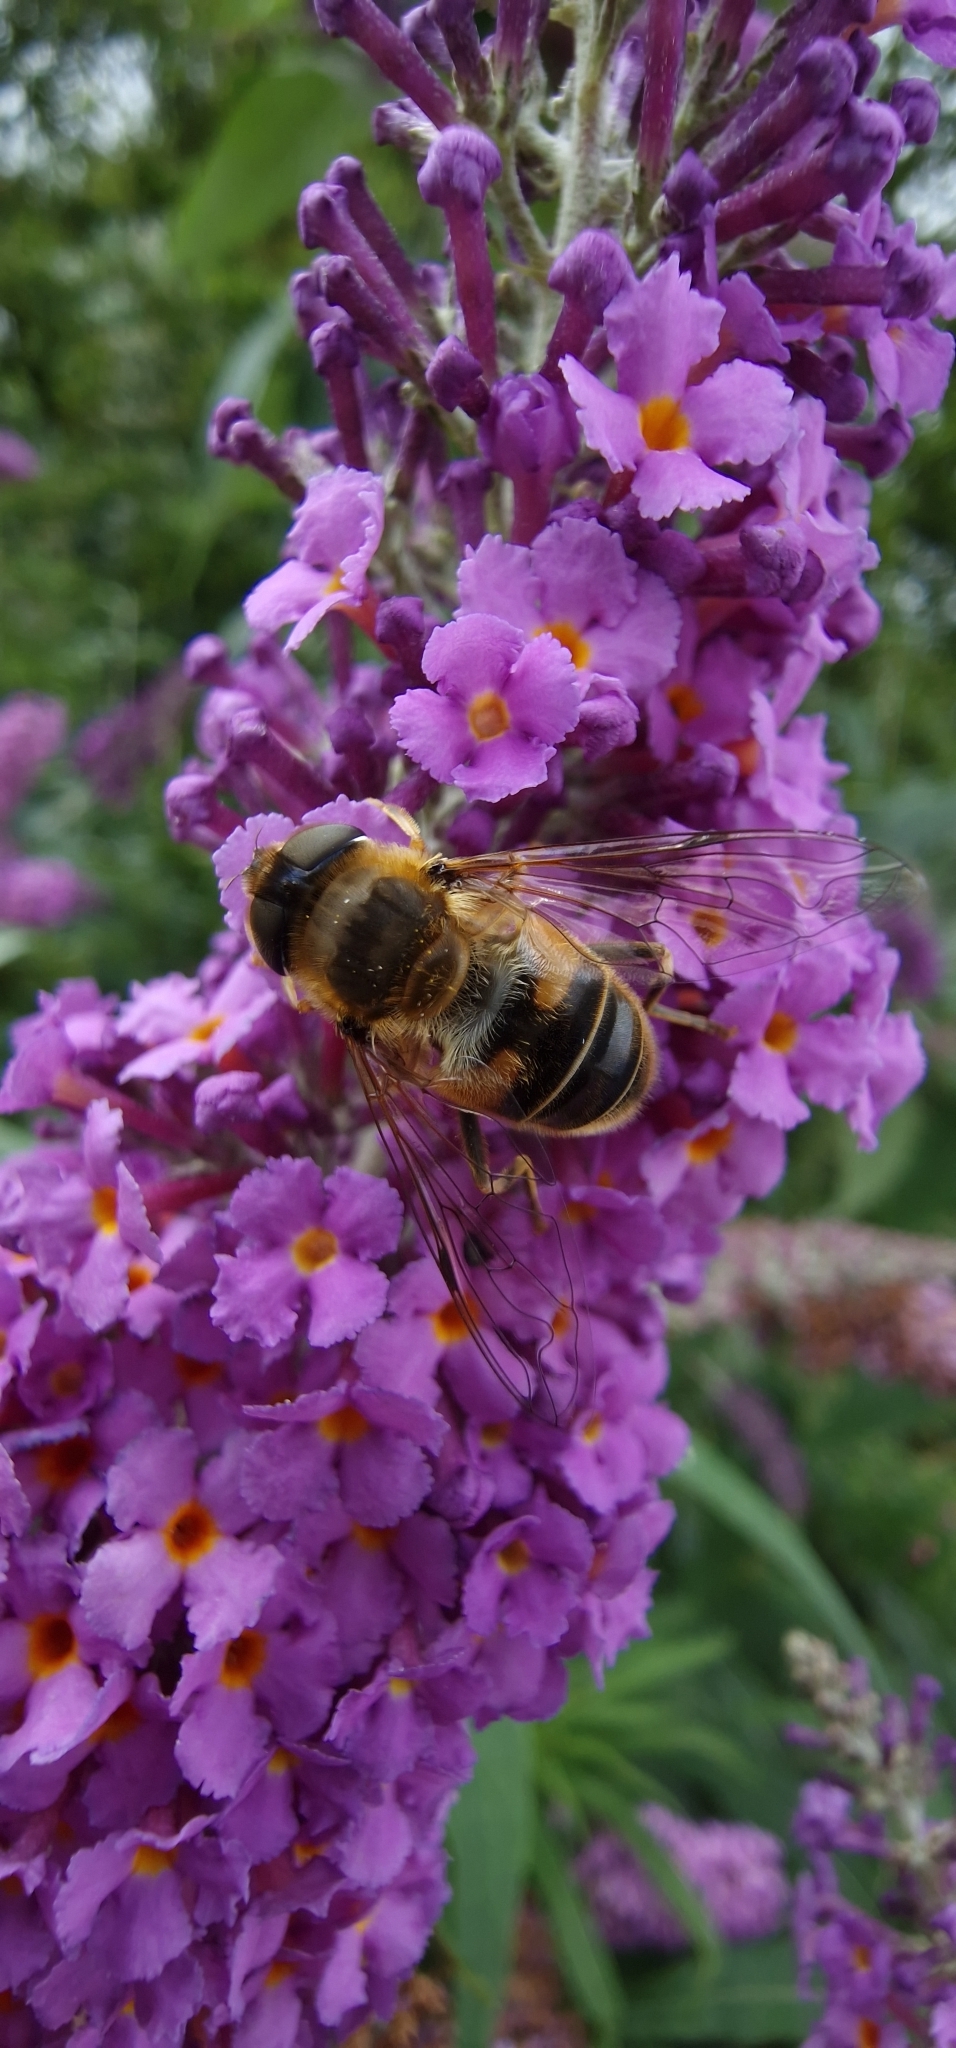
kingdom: Animalia
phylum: Arthropoda
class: Insecta
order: Diptera
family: Syrphidae
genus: Eristalis
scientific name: Eristalis pertinax
